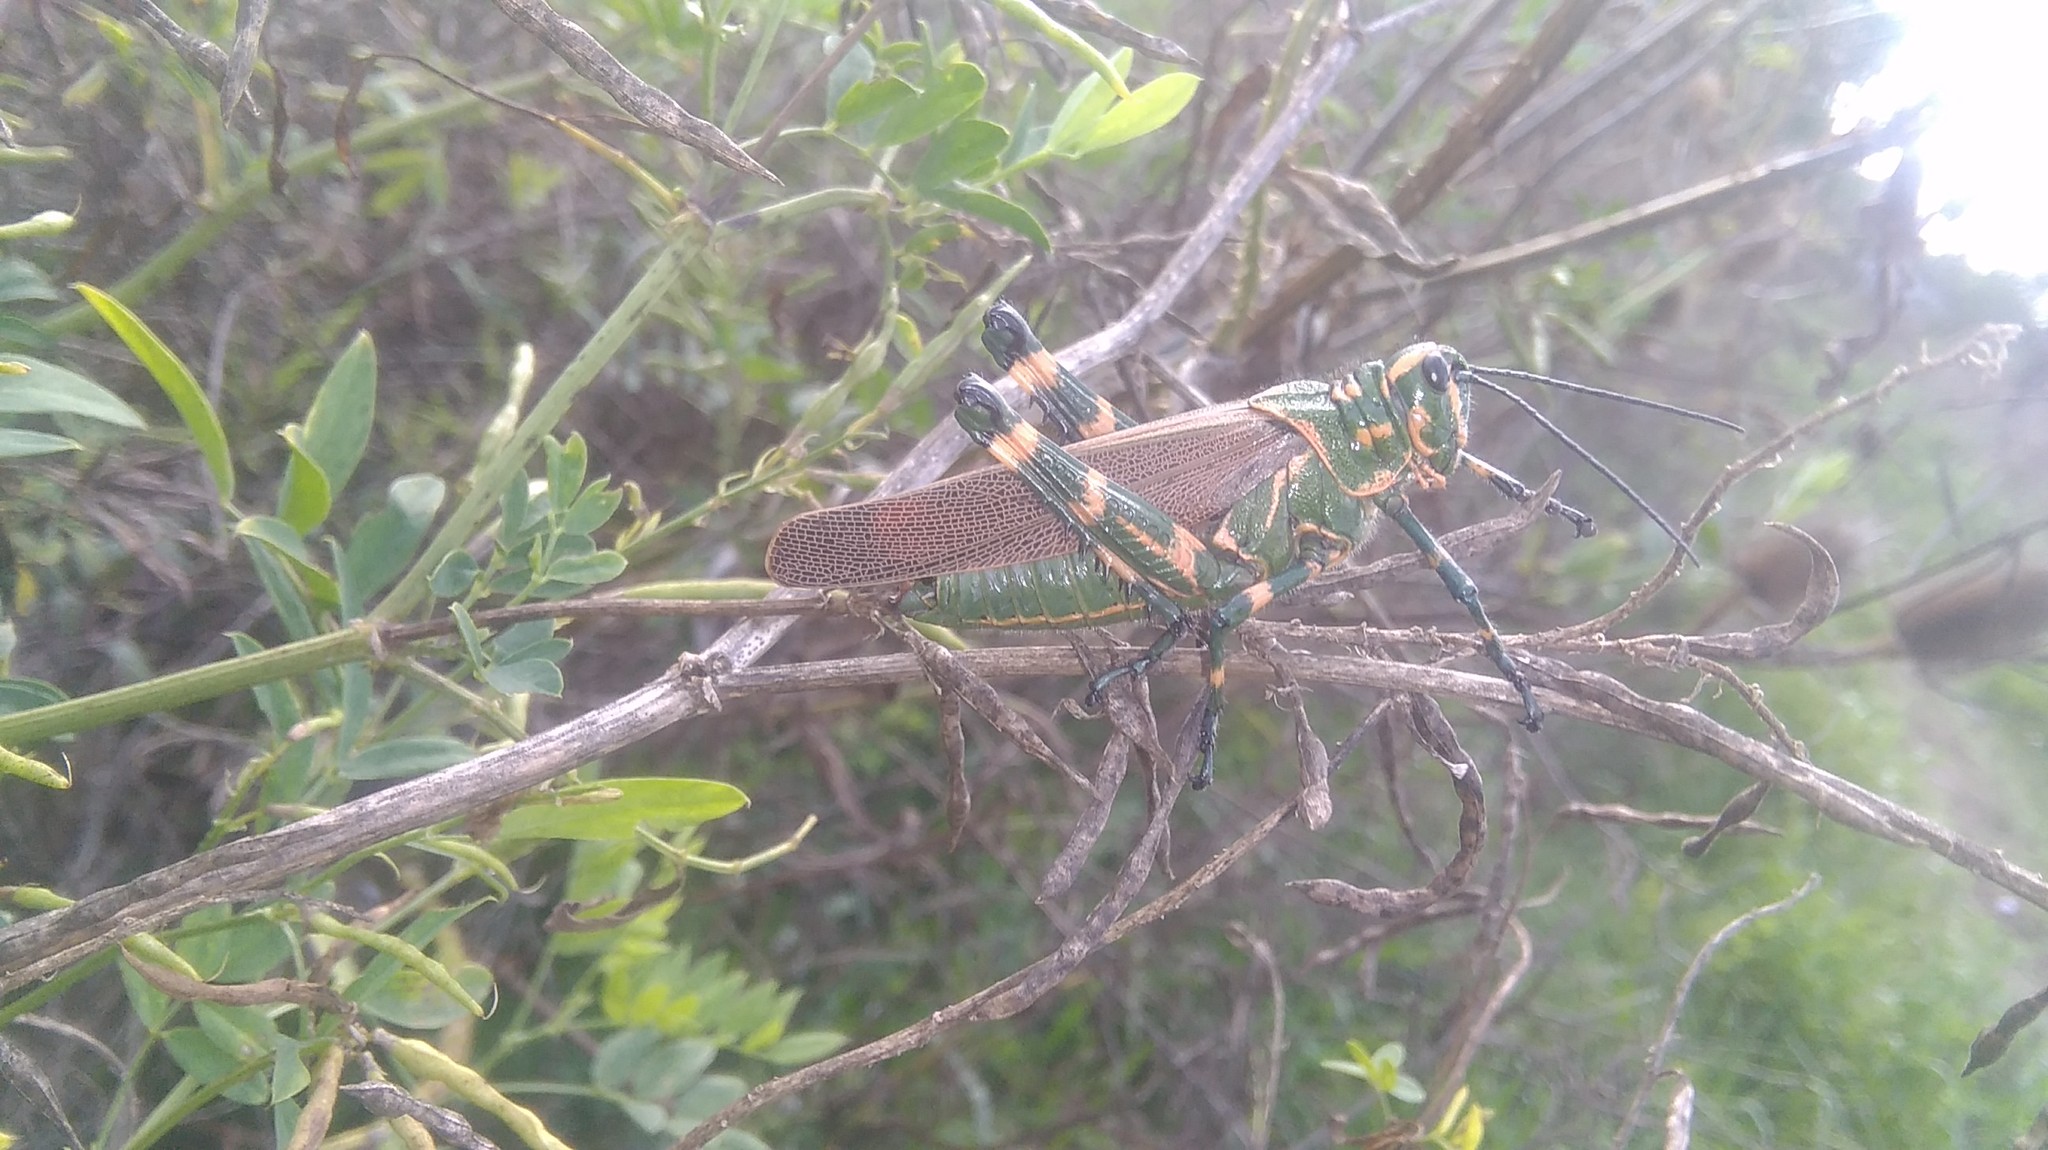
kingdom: Animalia
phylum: Arthropoda
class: Insecta
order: Orthoptera
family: Romaleidae
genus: Chromacris
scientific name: Chromacris speciosa
